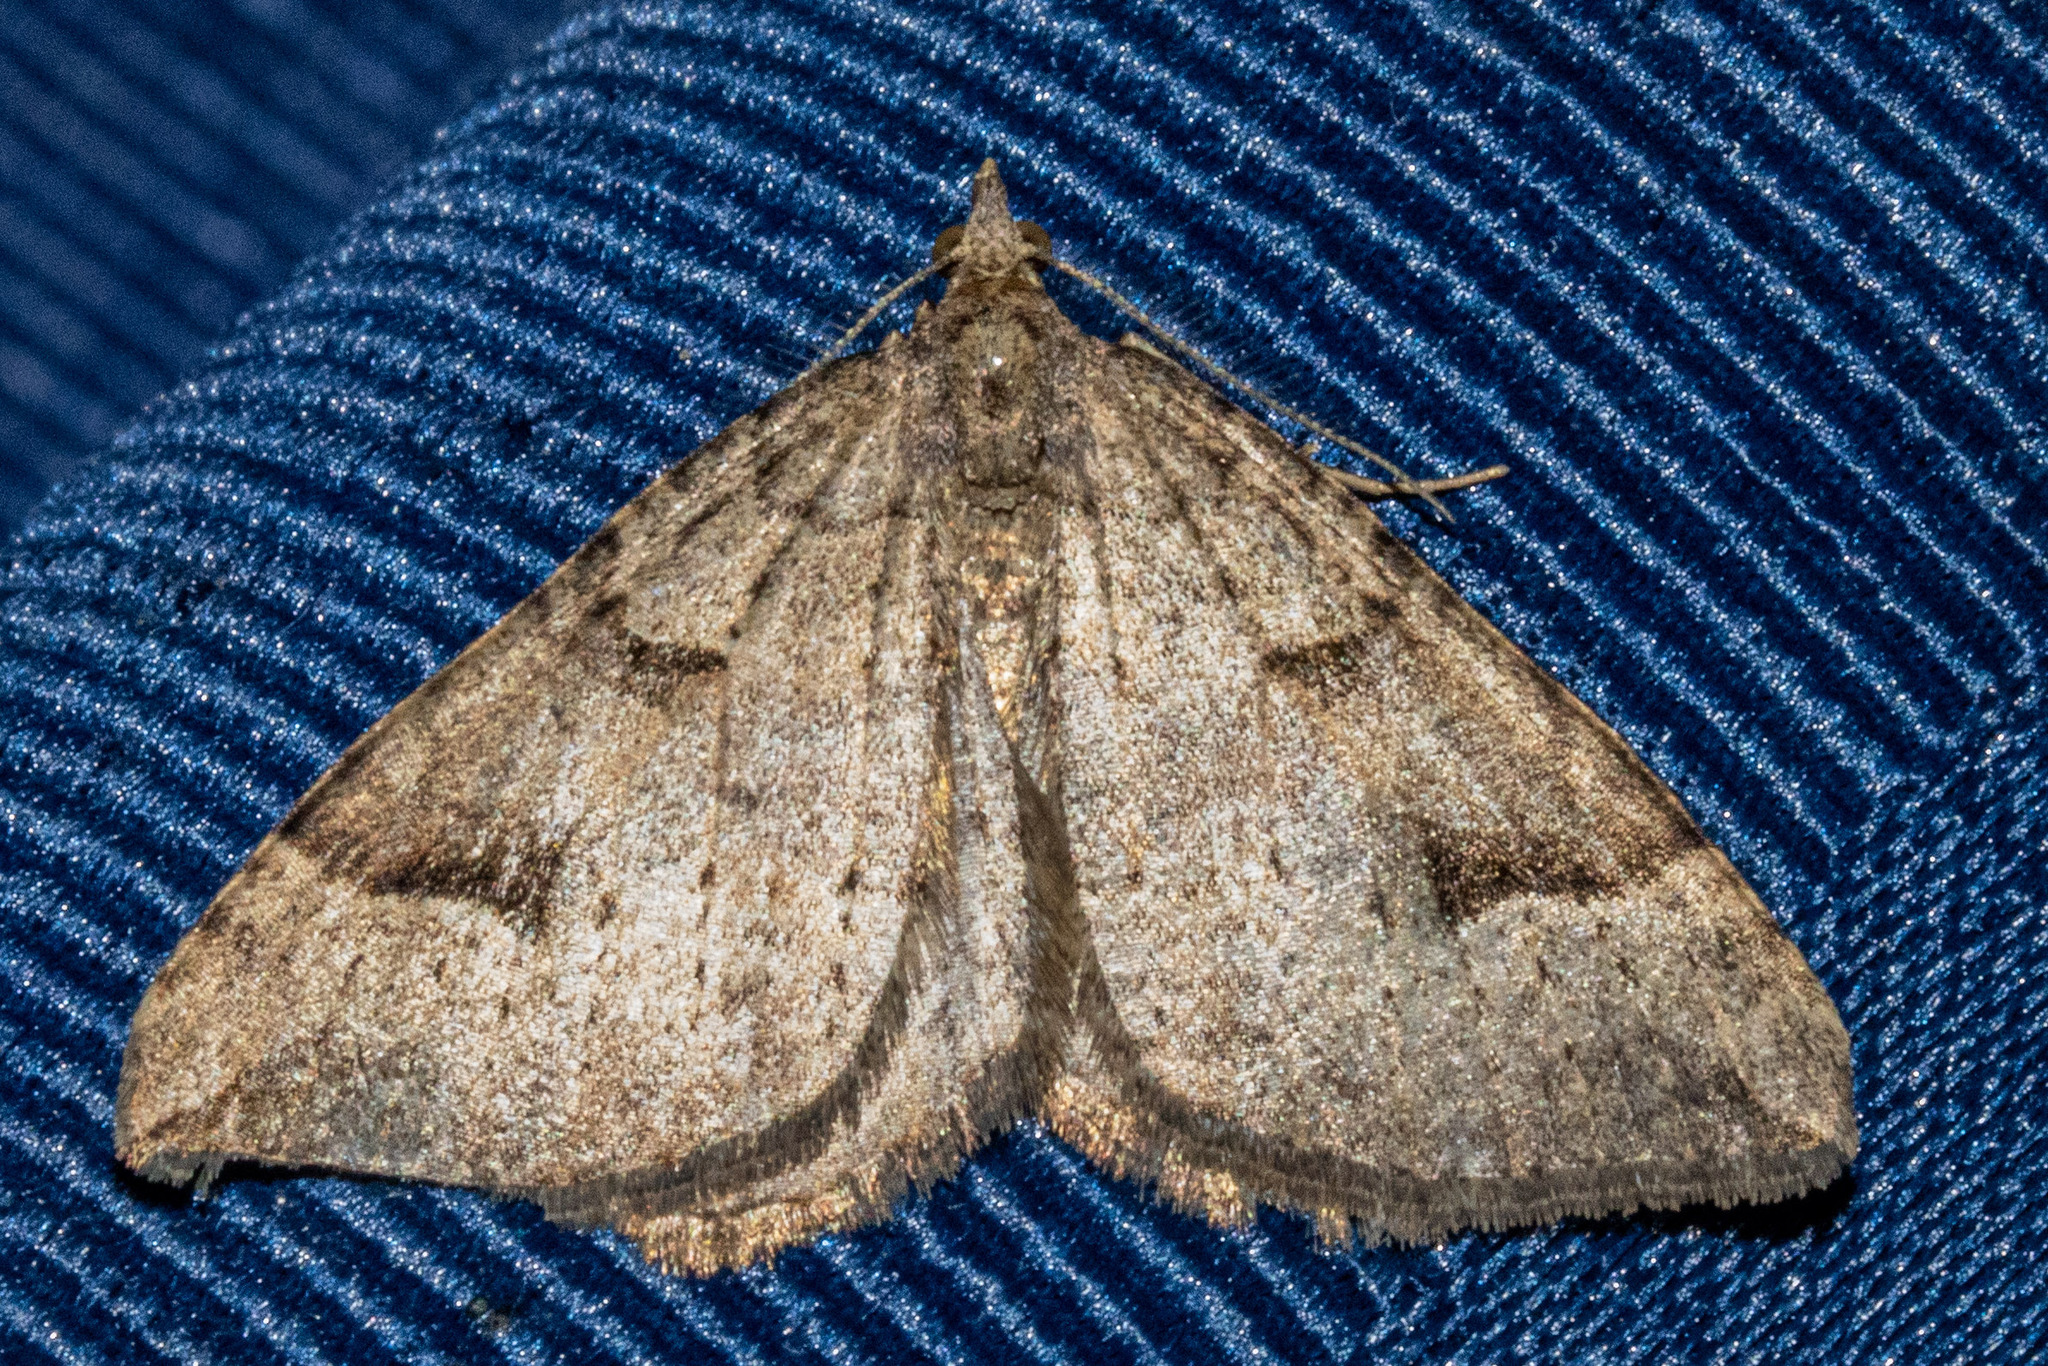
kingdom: Animalia
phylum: Arthropoda
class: Insecta
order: Lepidoptera
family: Geometridae
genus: Epyaxa
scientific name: Epyaxa rosearia
